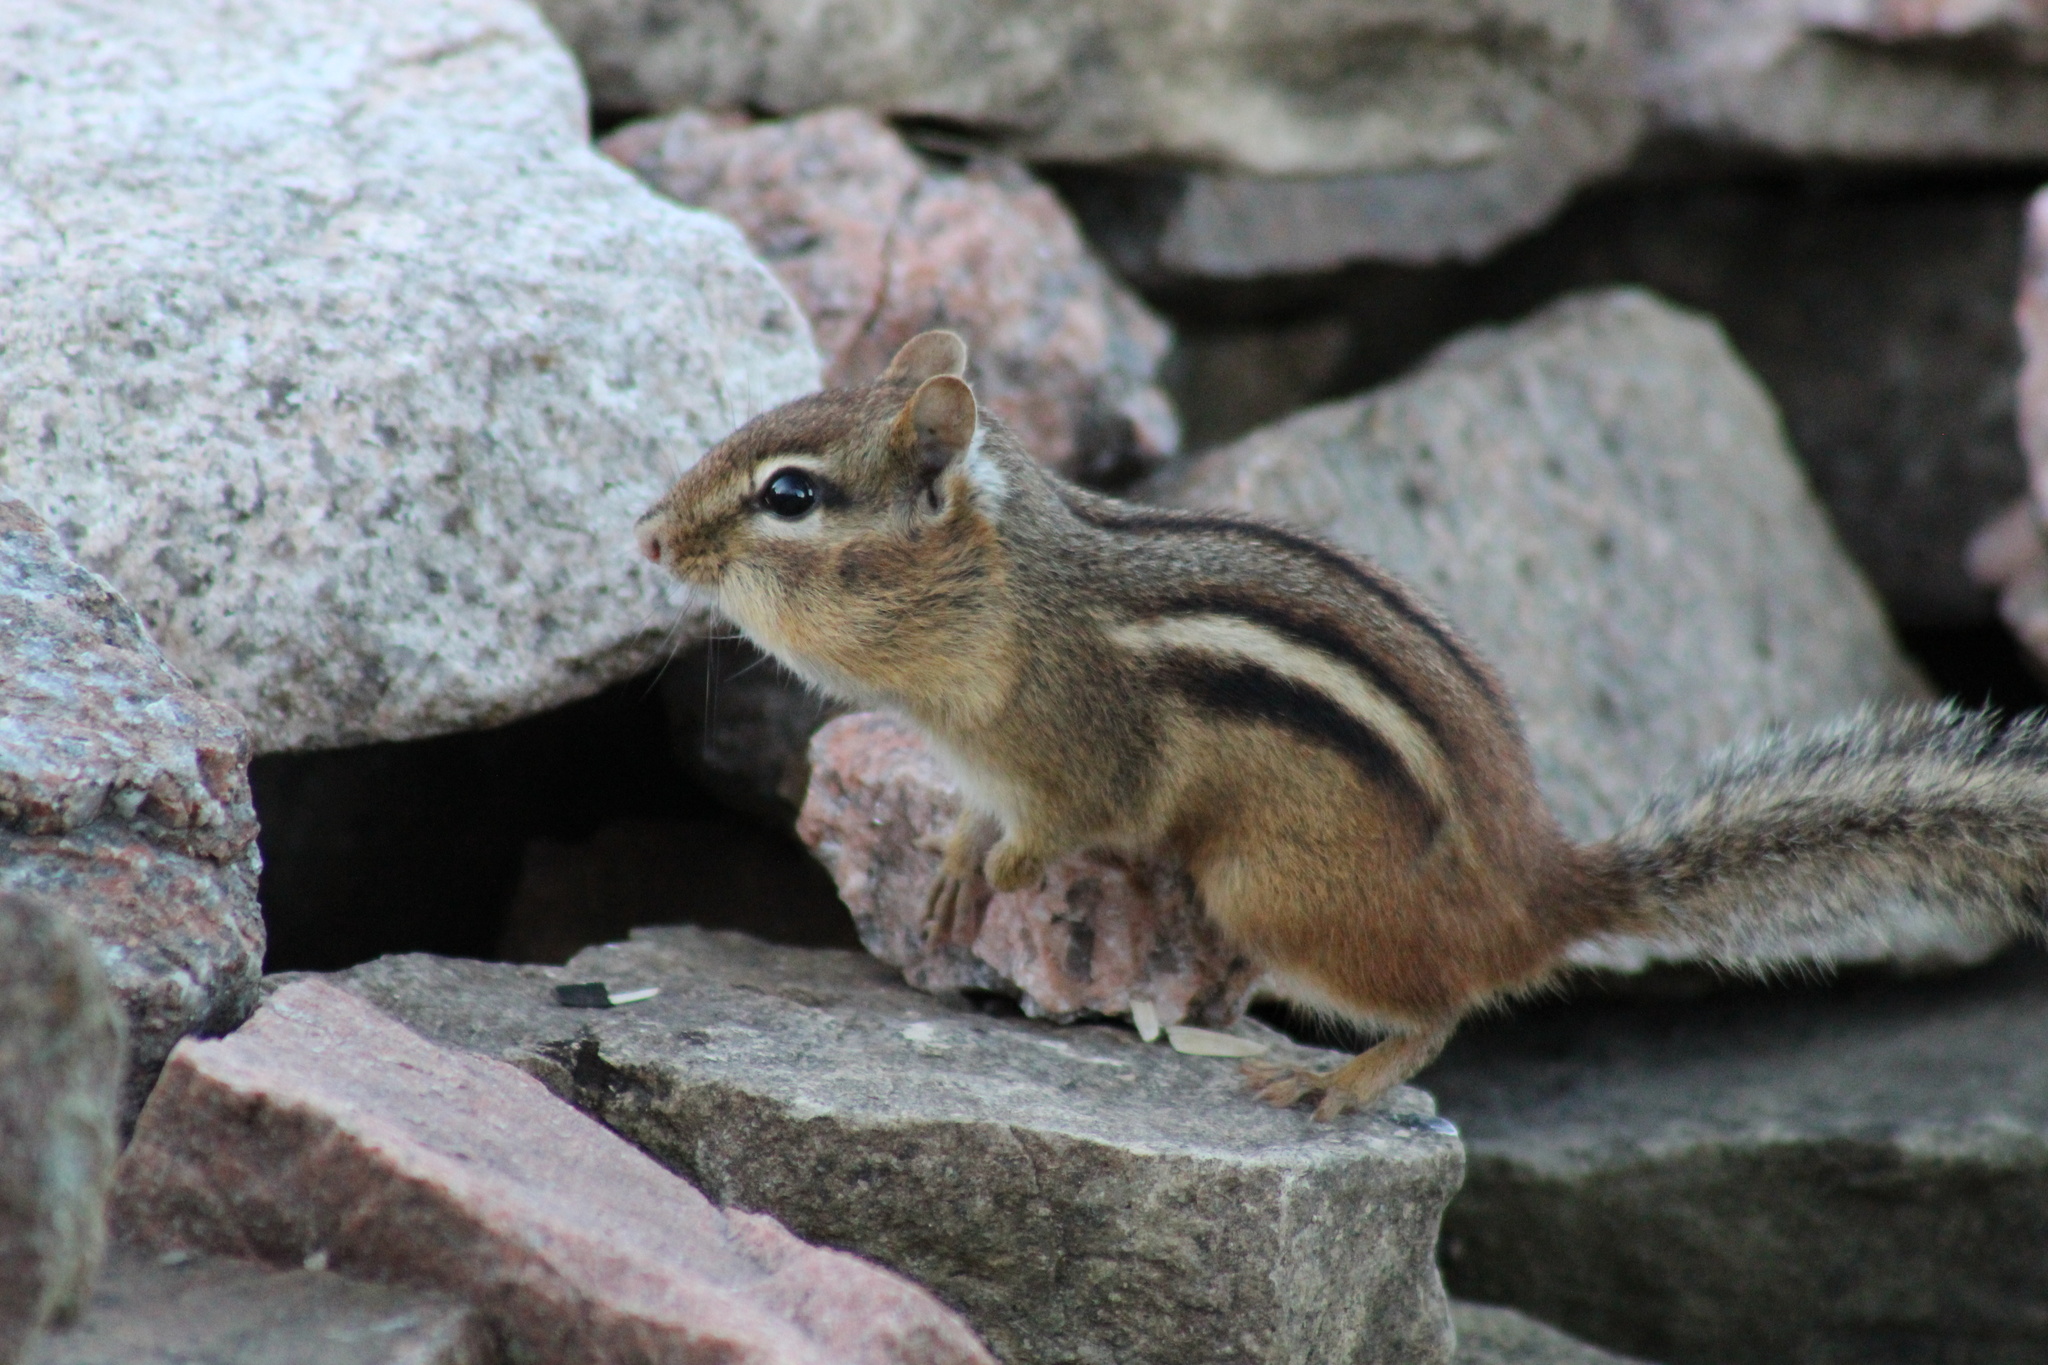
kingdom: Animalia
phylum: Chordata
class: Mammalia
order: Rodentia
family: Sciuridae
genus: Tamias
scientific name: Tamias striatus
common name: Eastern chipmunk
